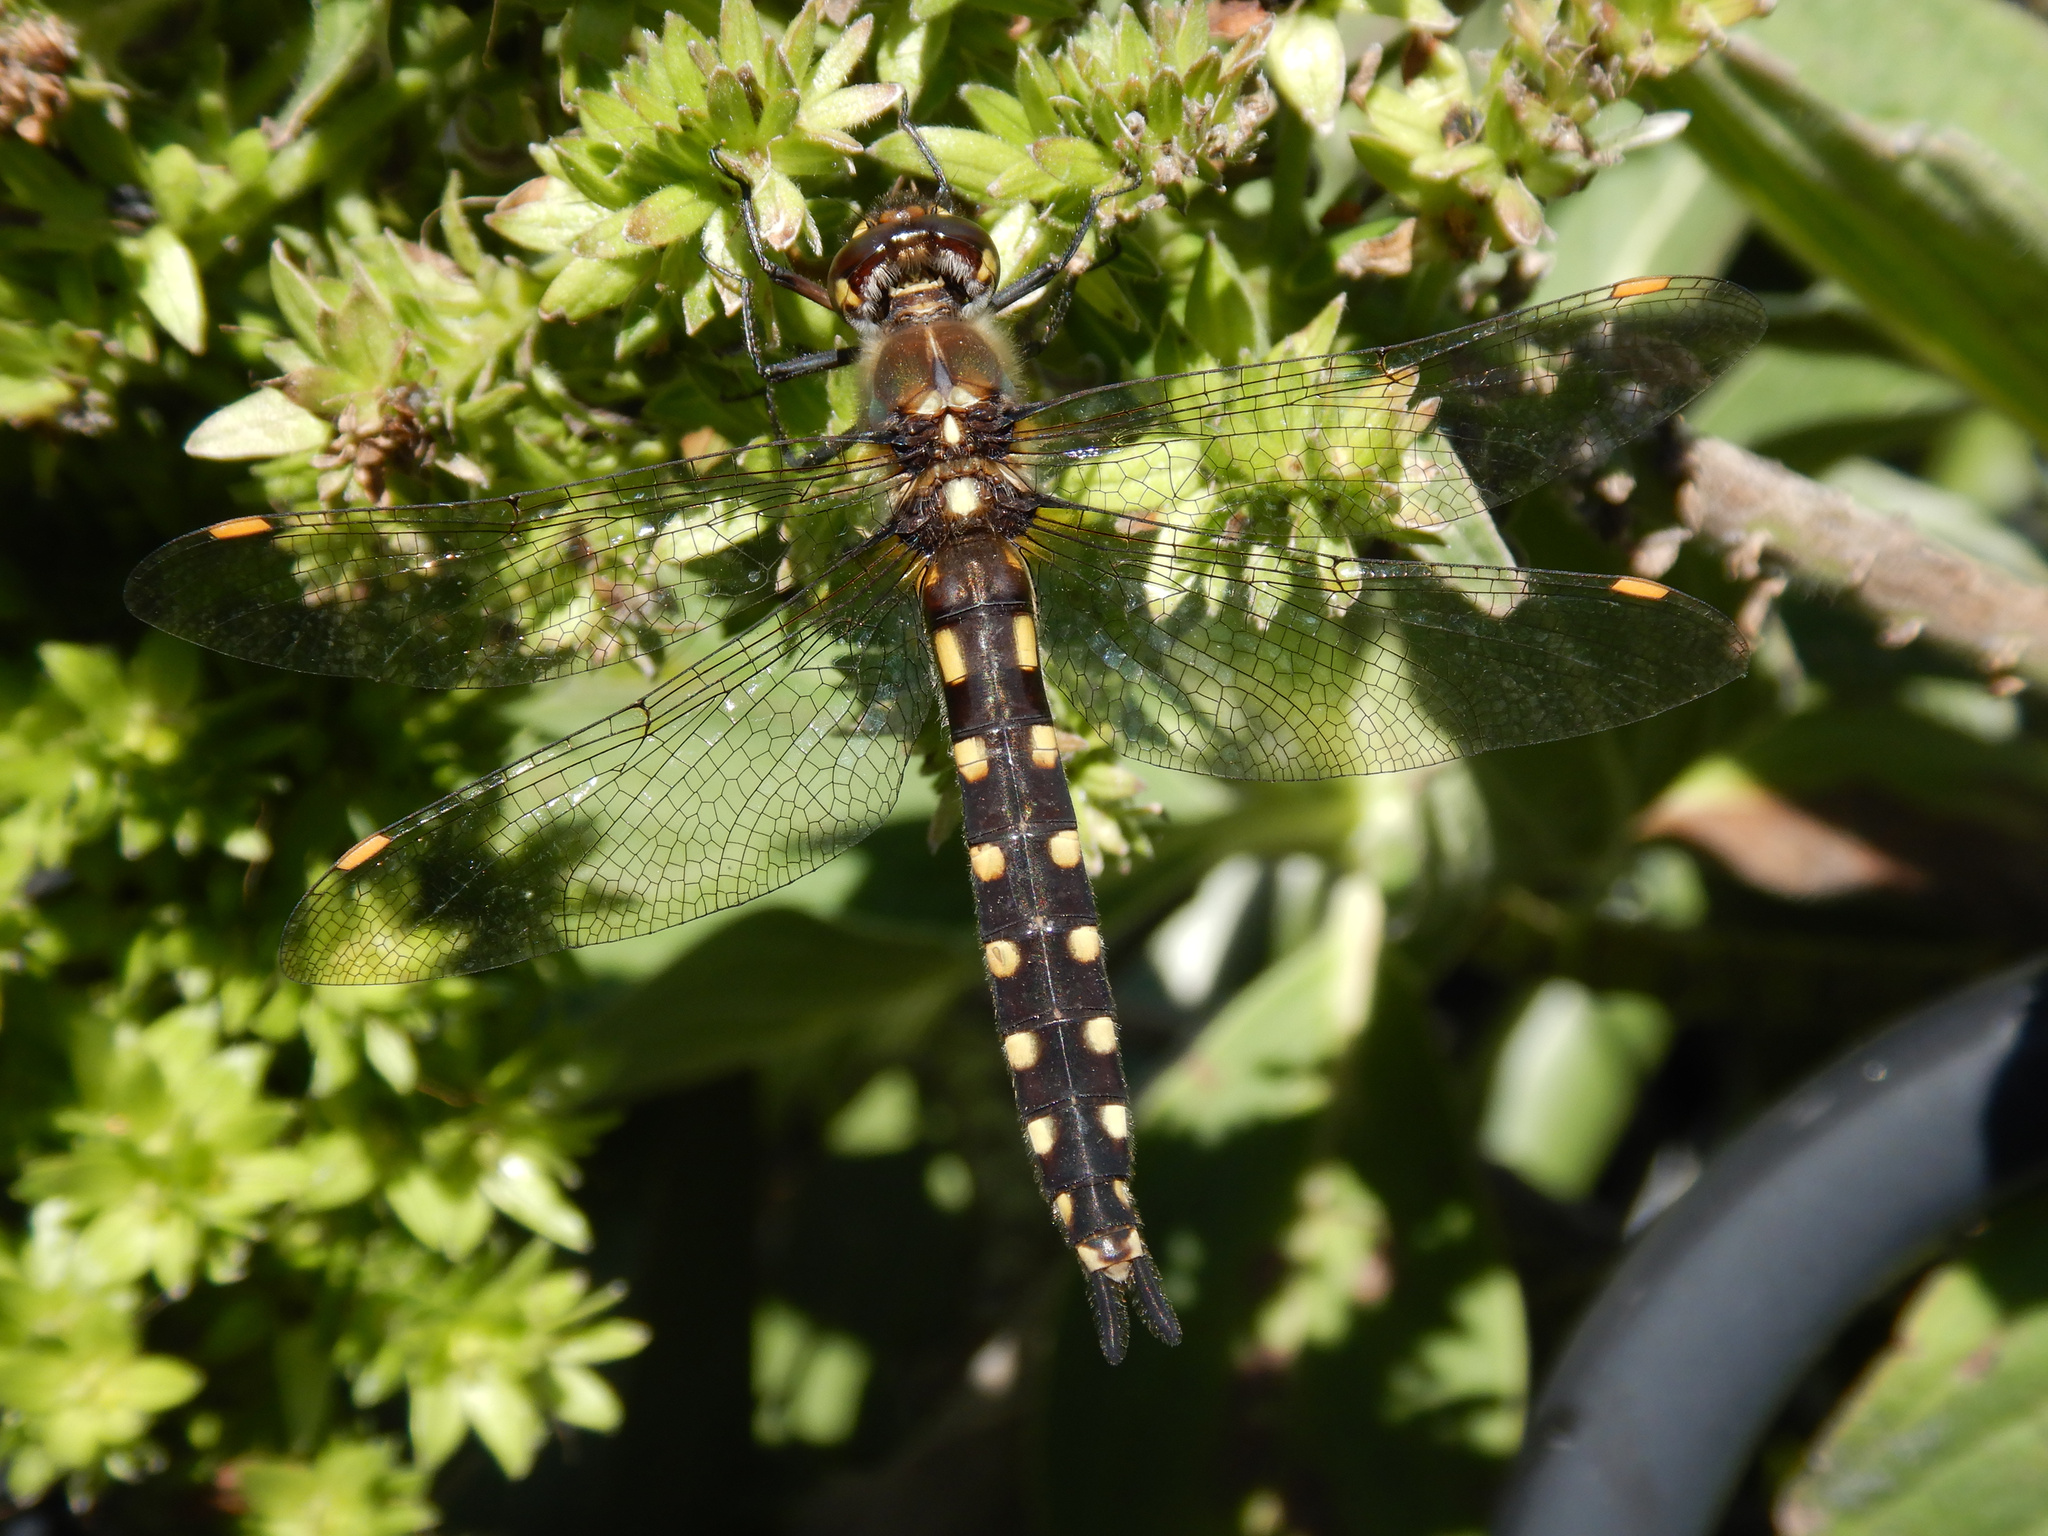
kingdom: Animalia
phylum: Arthropoda
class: Insecta
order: Odonata
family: Corduliidae
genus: Procordulia
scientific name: Procordulia grayi
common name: Yellow spotted dragonfly
